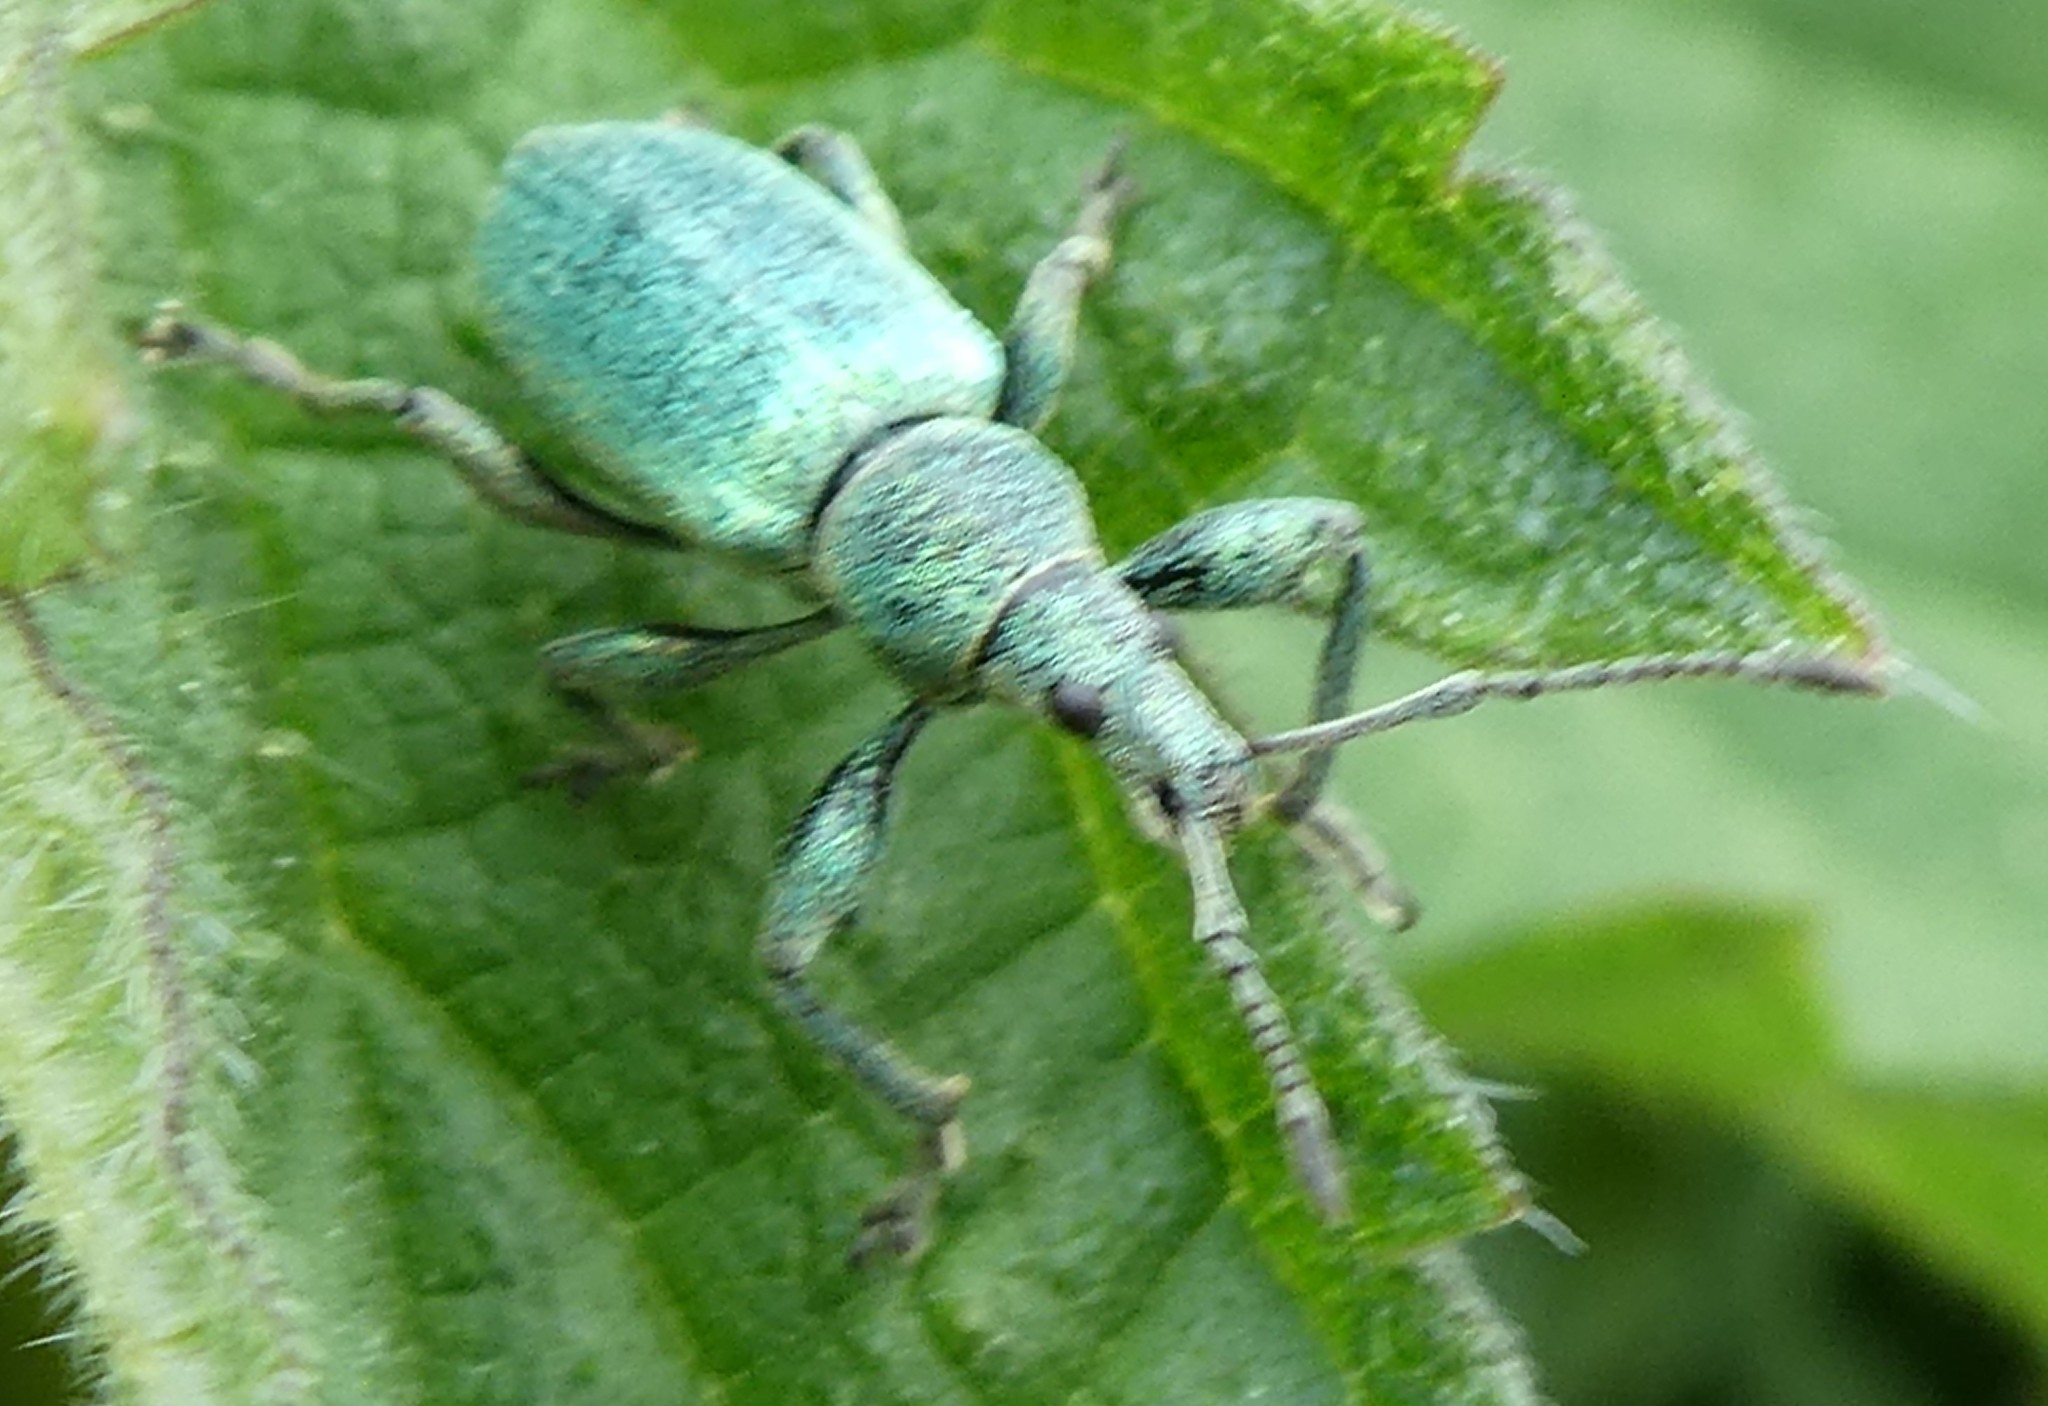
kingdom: Animalia
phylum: Arthropoda
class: Insecta
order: Coleoptera
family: Curculionidae
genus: Phyllobius
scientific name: Phyllobius pomaceus
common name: Green nettle weevil
